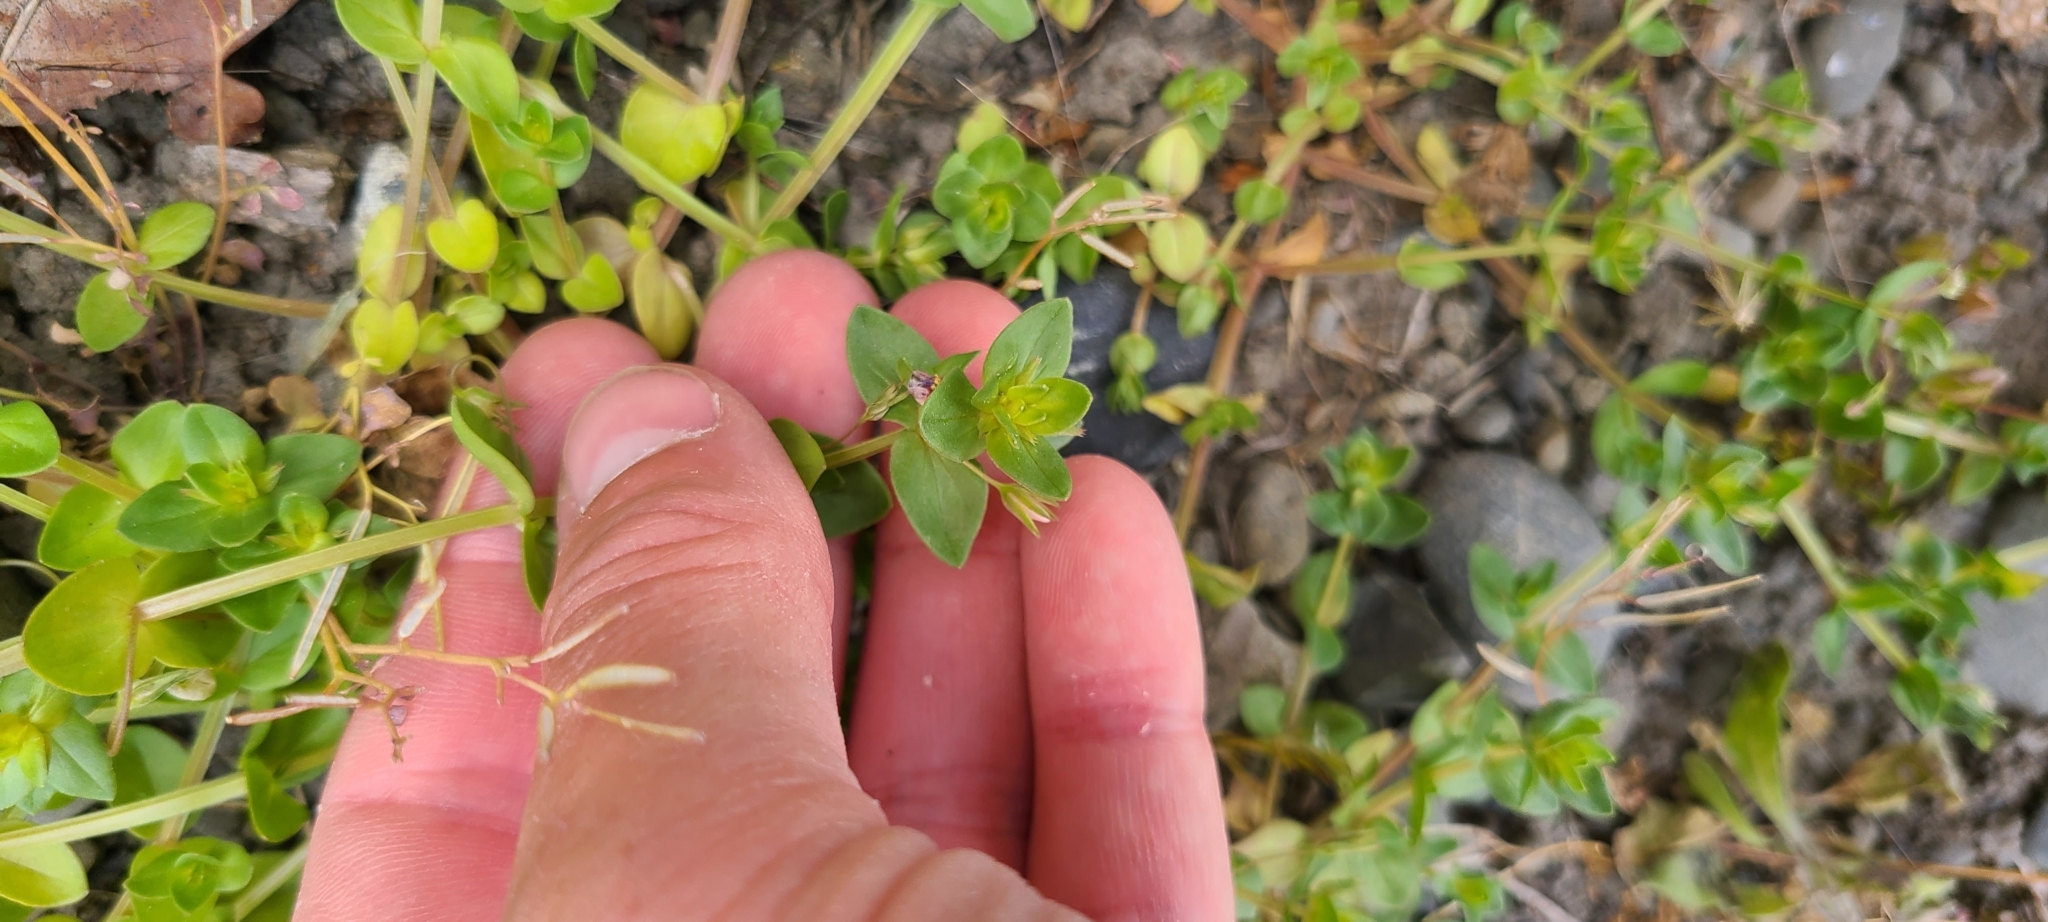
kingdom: Plantae
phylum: Tracheophyta
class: Magnoliopsida
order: Ericales
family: Primulaceae
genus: Lysimachia
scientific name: Lysimachia arvensis
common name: Scarlet pimpernel
